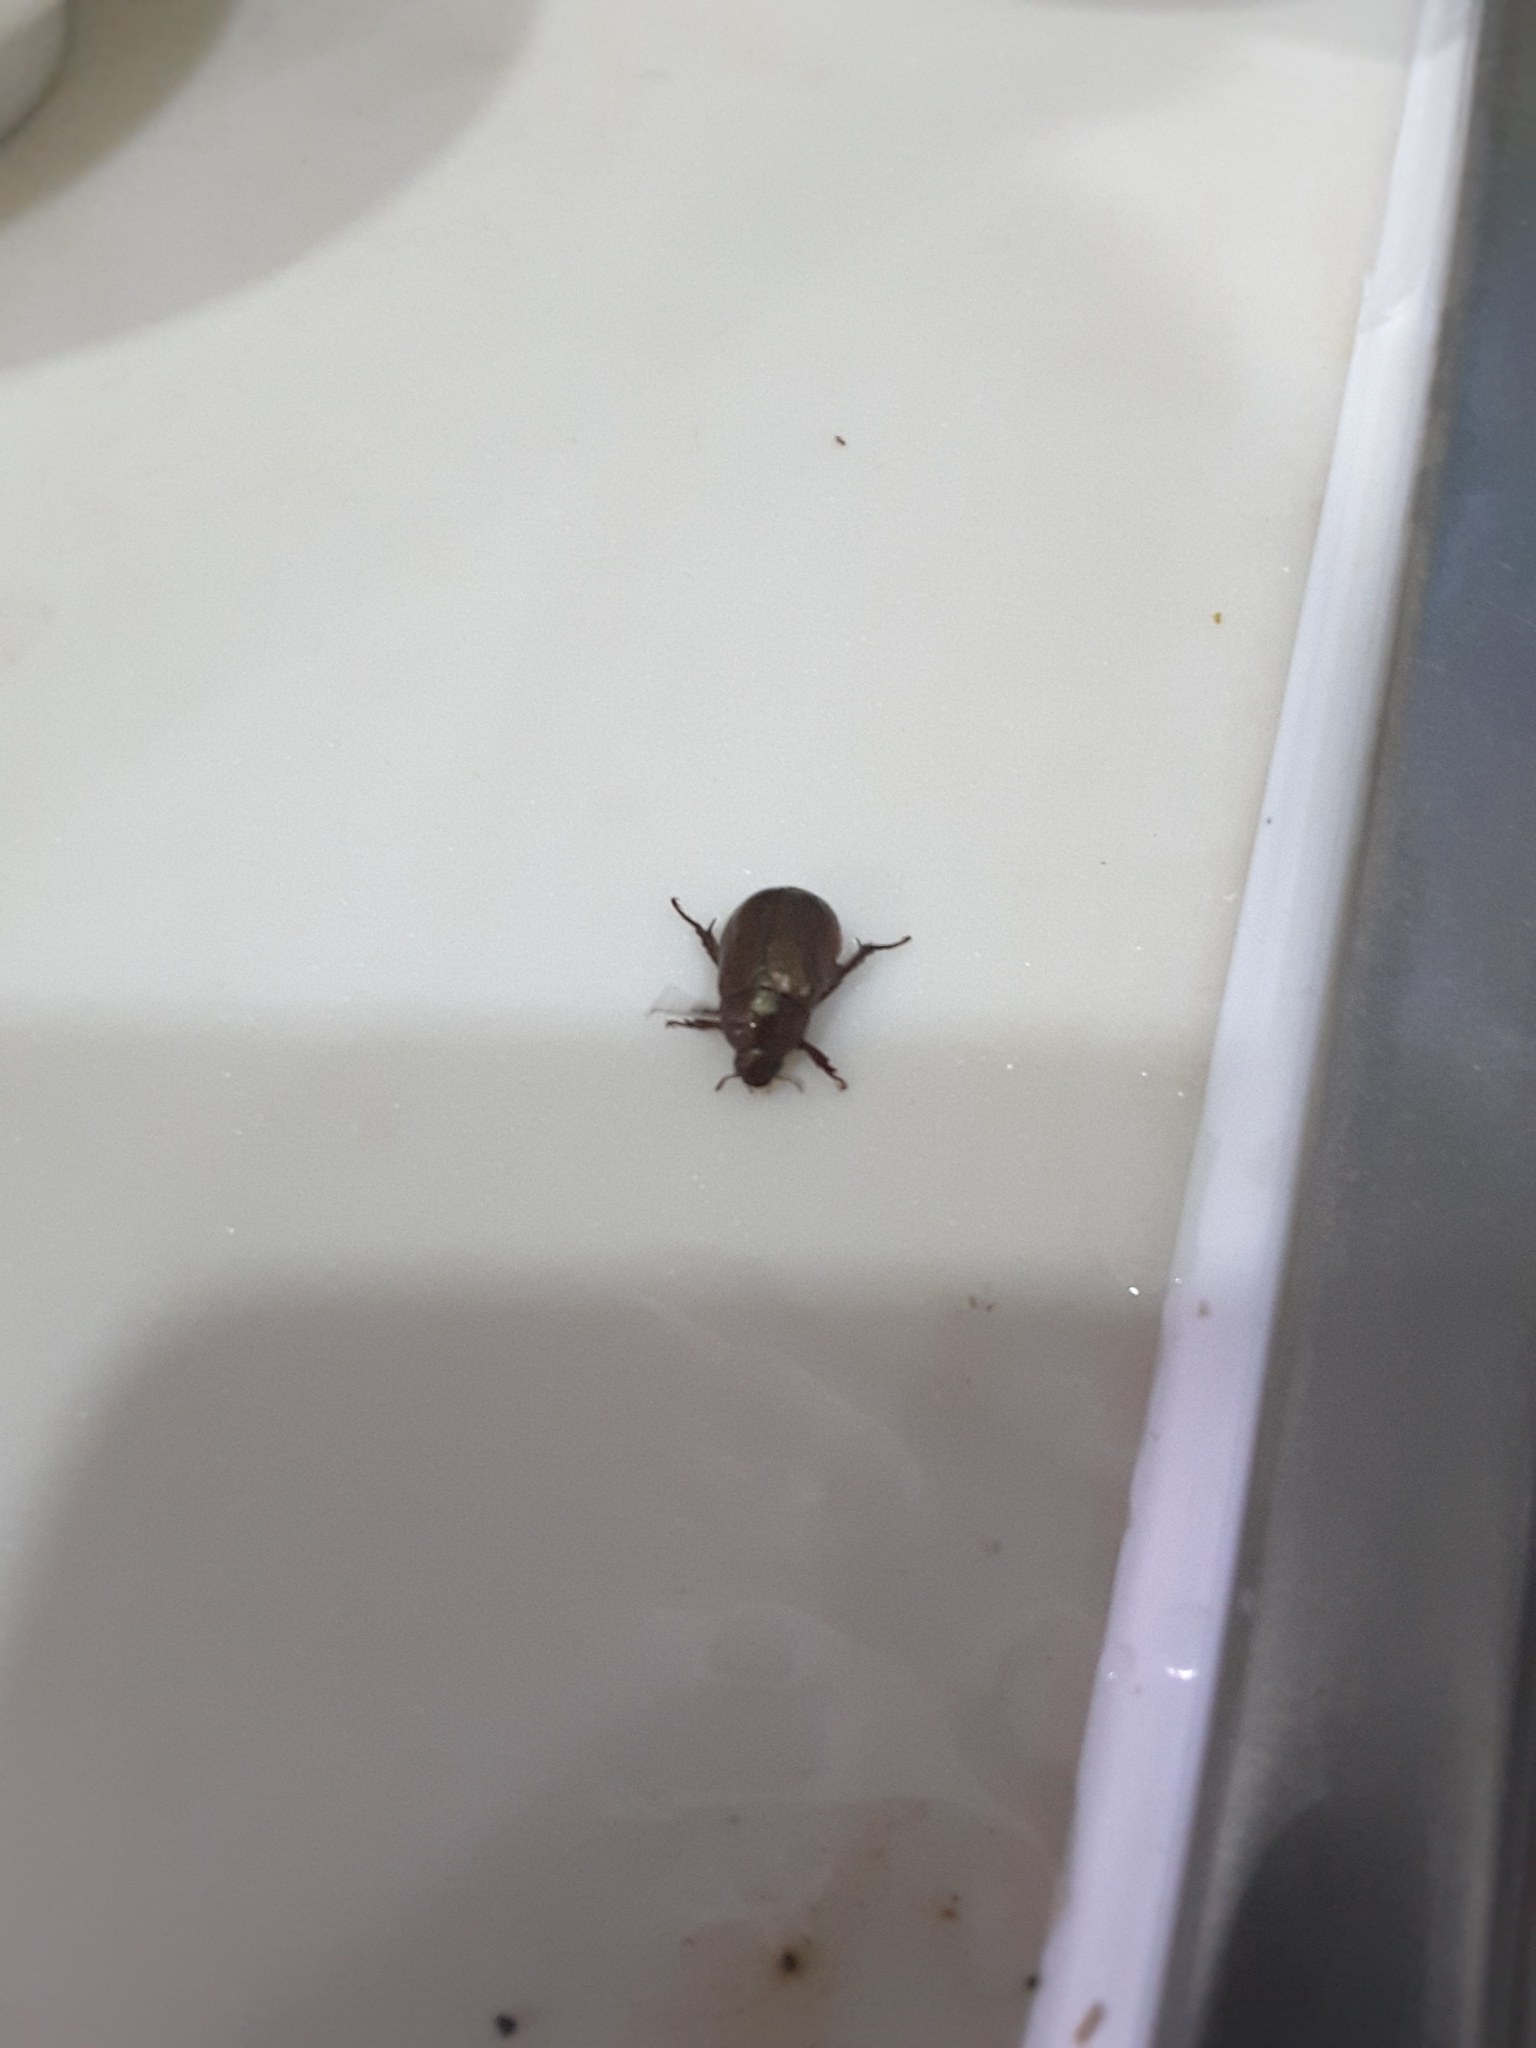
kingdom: Animalia
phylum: Arthropoda
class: Insecta
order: Coleoptera
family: Scarabaeidae
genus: Anomala
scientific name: Anomala obsoleta
